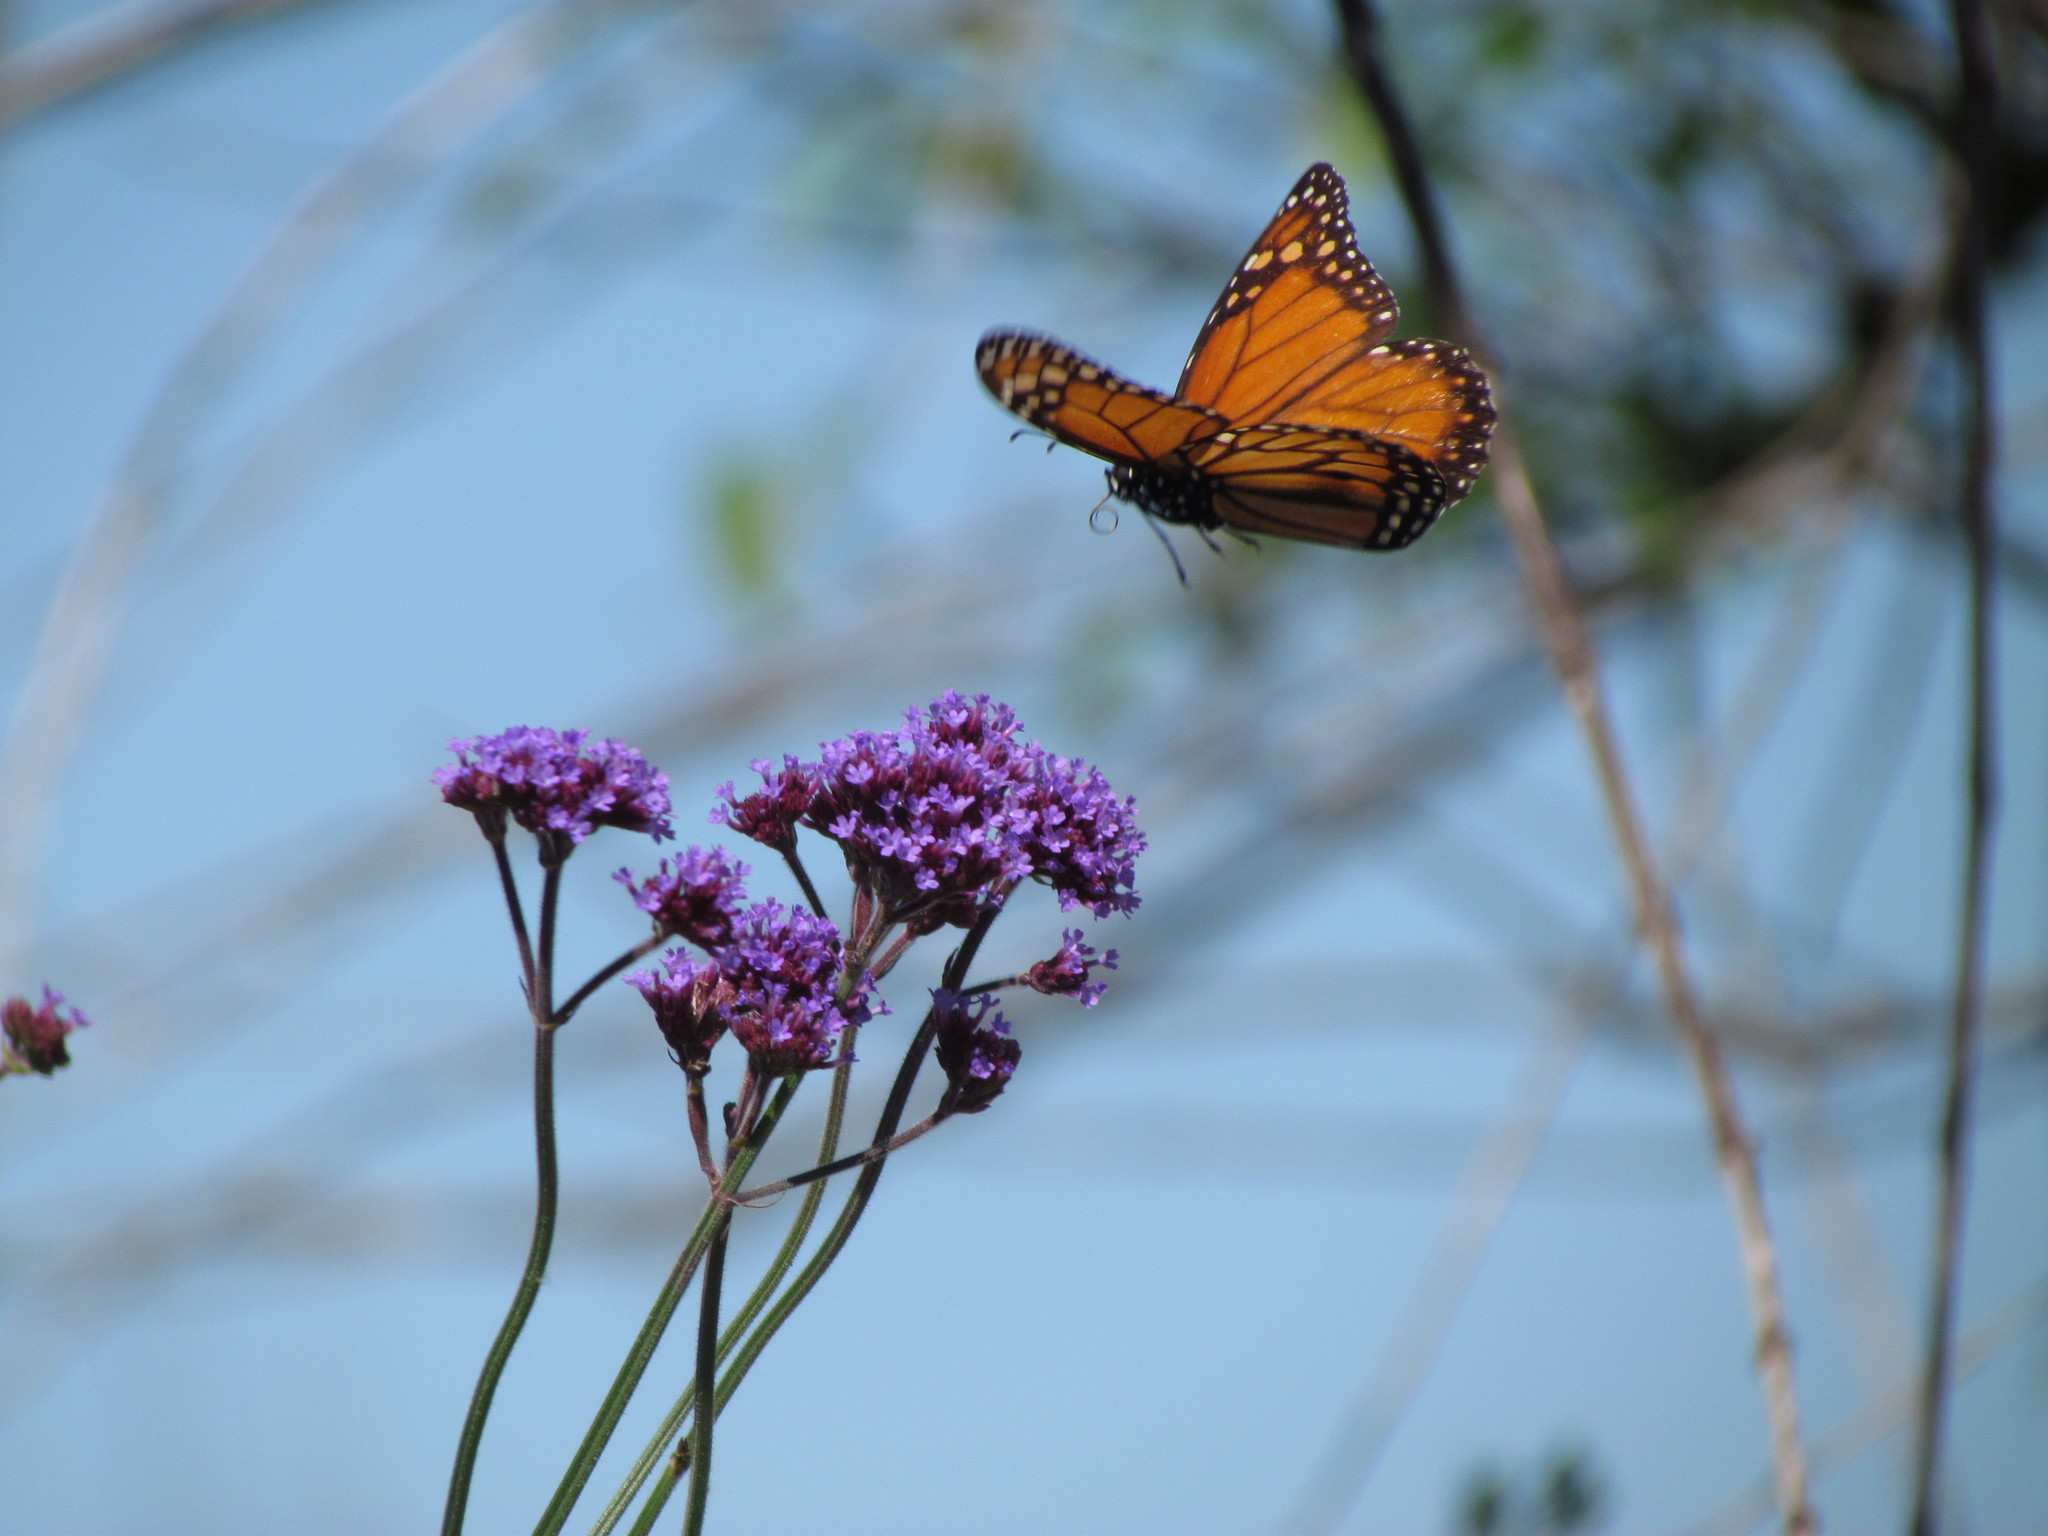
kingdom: Animalia
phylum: Arthropoda
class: Insecta
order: Lepidoptera
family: Nymphalidae
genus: Danaus
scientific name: Danaus erippus
